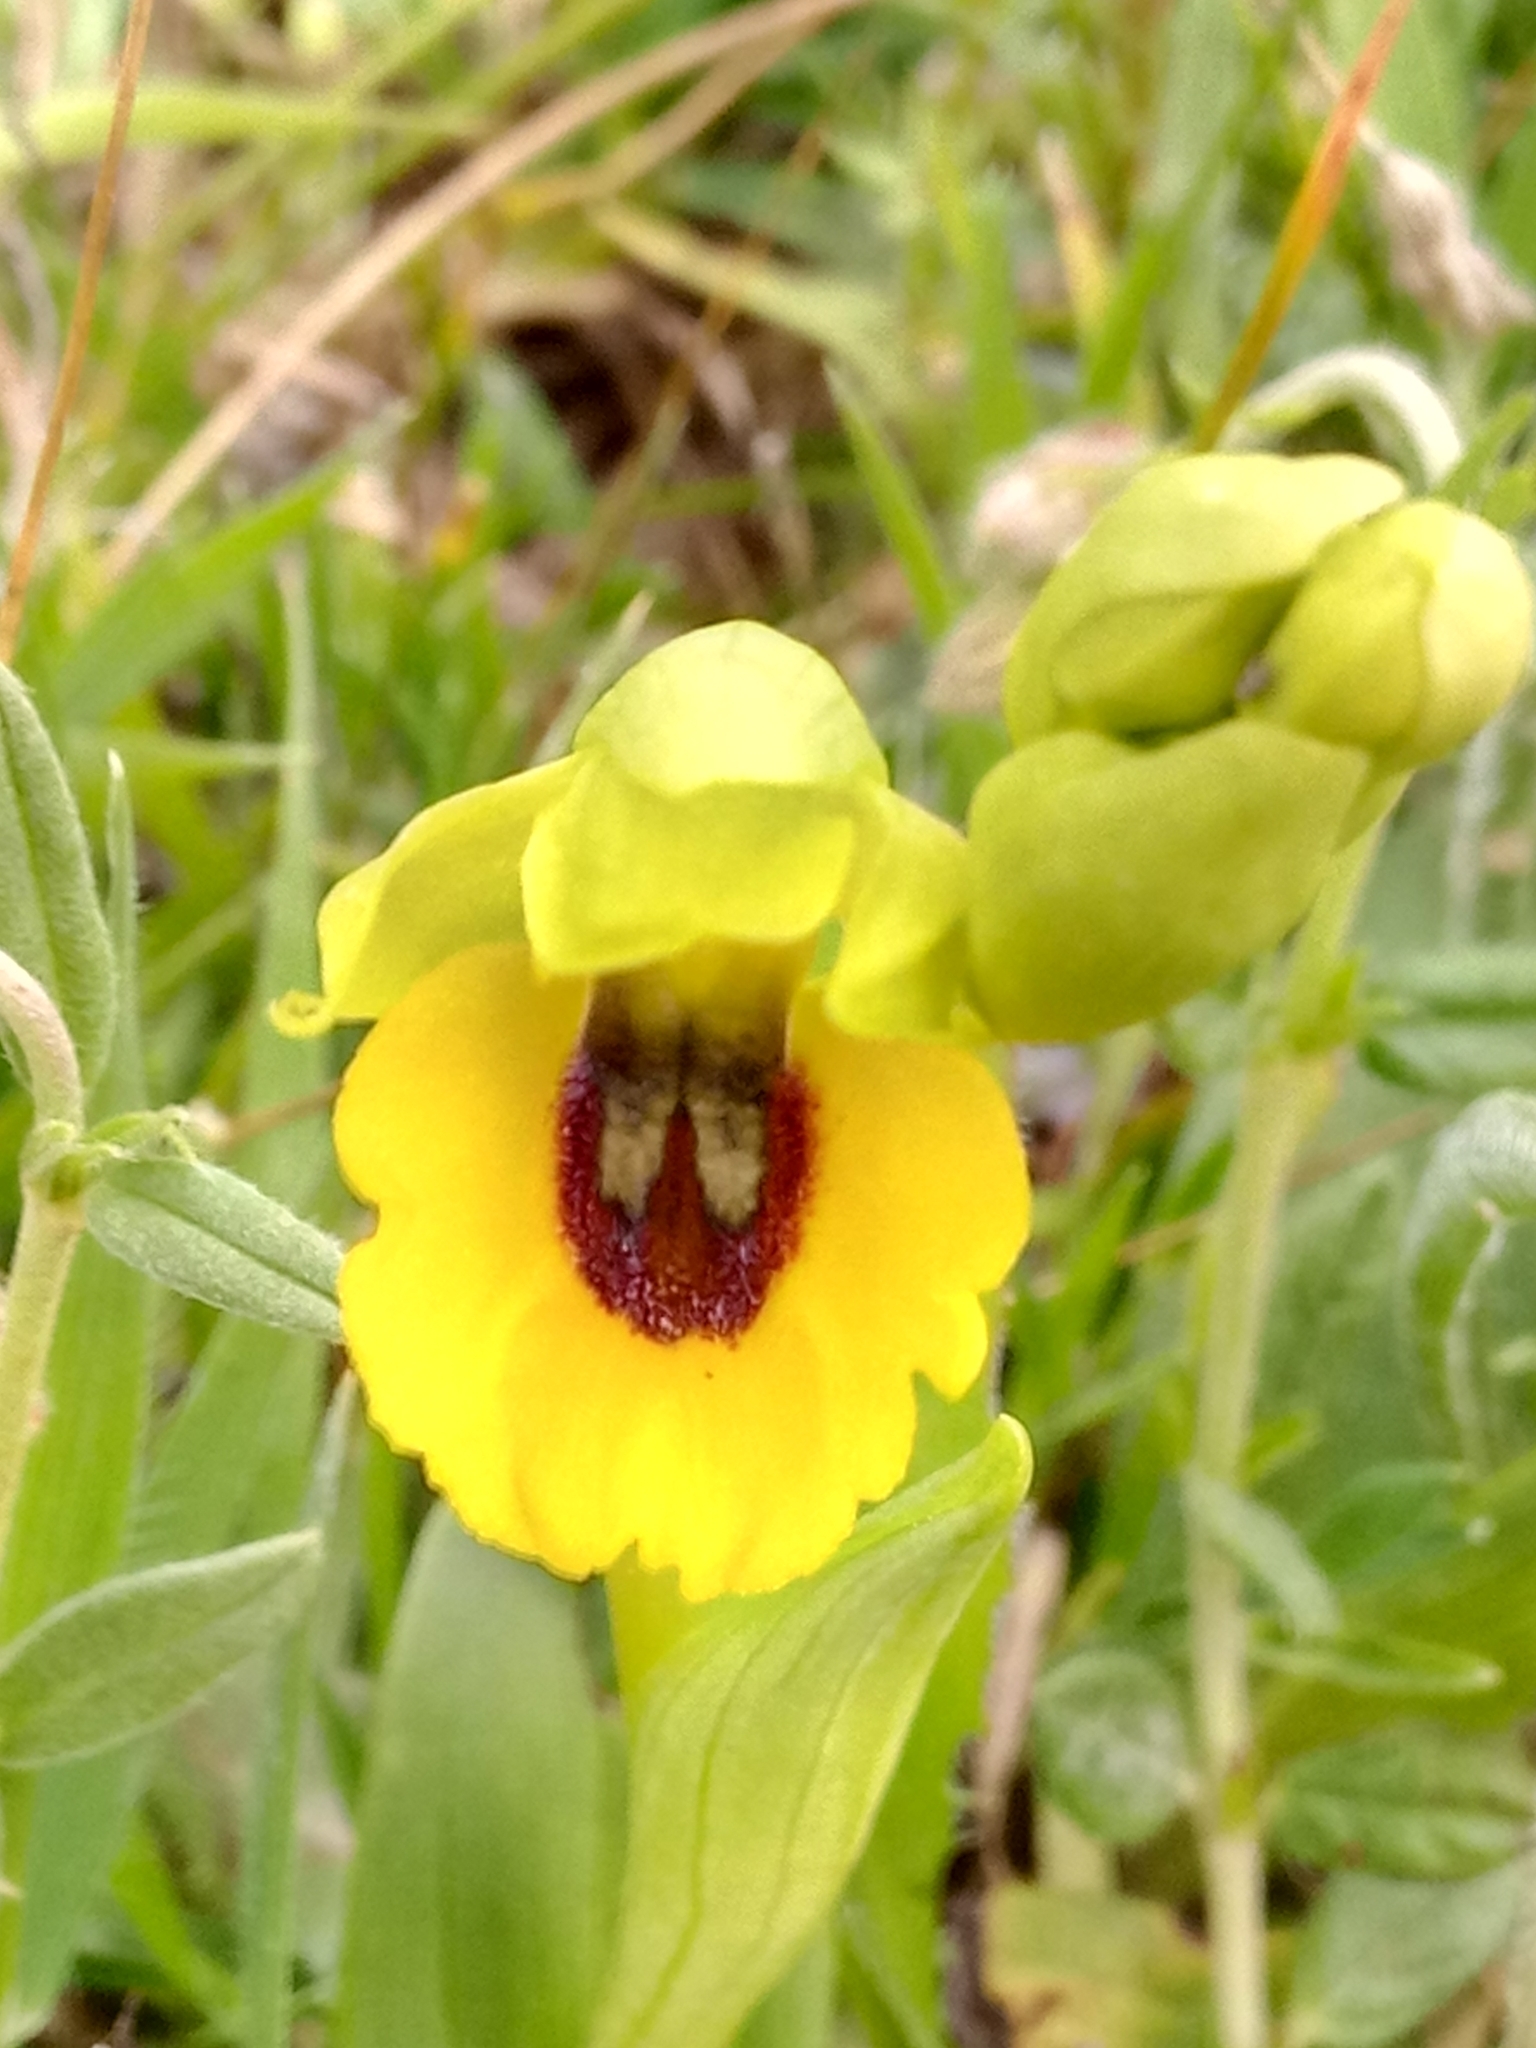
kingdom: Plantae
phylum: Tracheophyta
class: Liliopsida
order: Asparagales
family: Orchidaceae
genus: Ophrys
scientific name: Ophrys lutea
